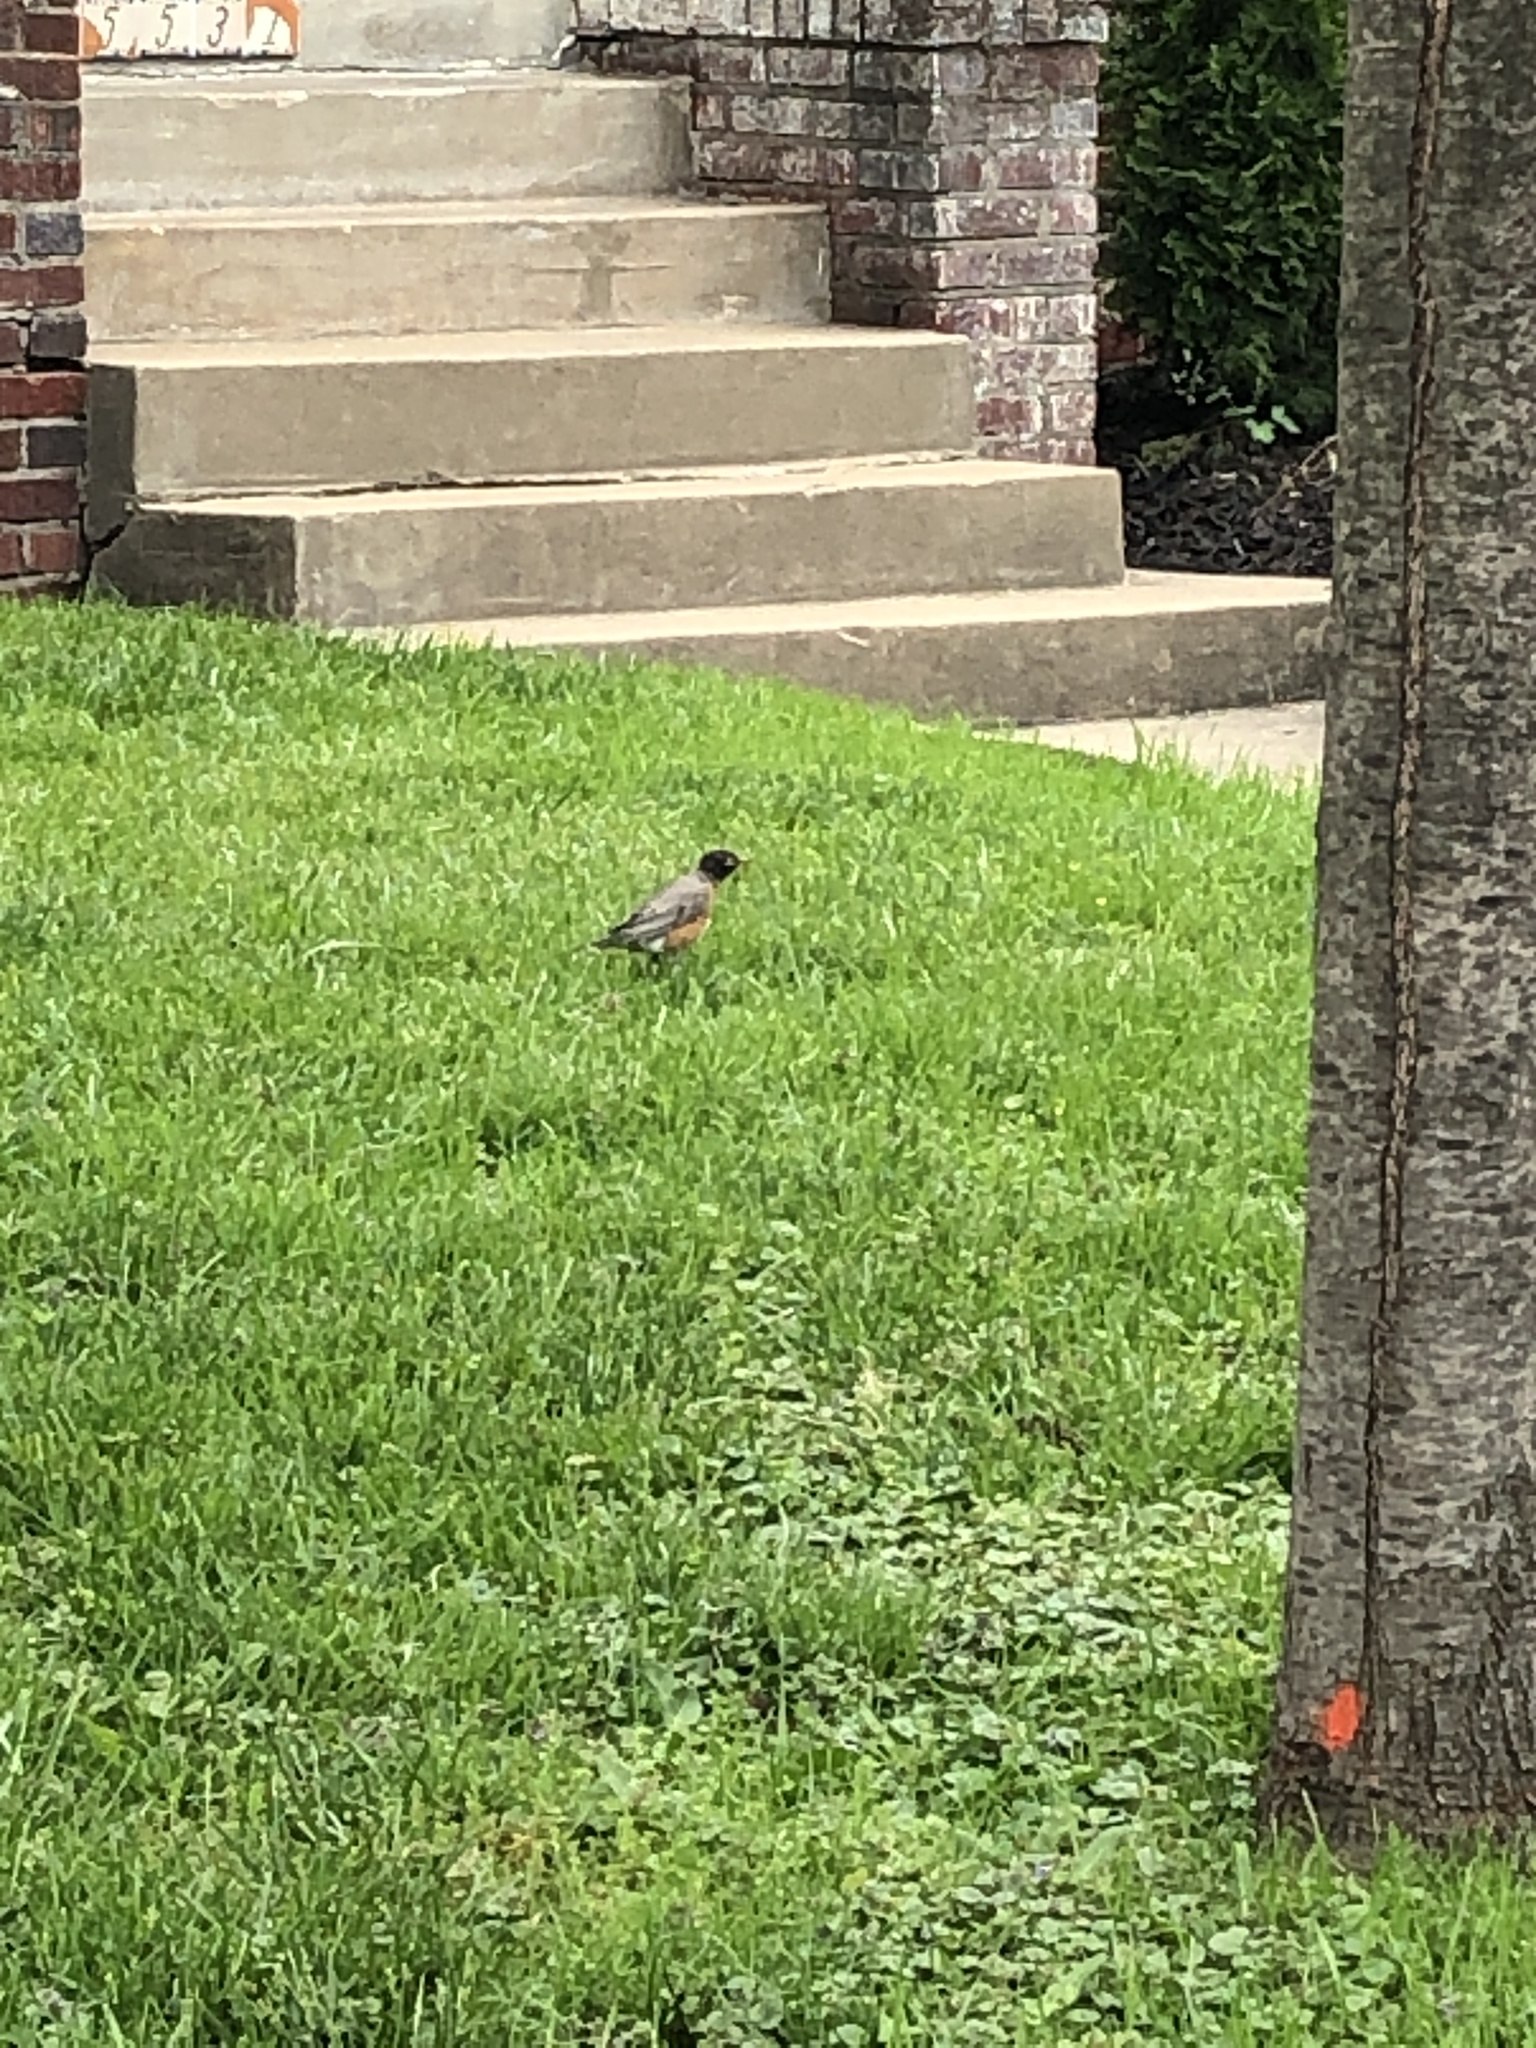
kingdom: Animalia
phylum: Chordata
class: Aves
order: Passeriformes
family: Turdidae
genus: Turdus
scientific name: Turdus migratorius
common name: American robin
